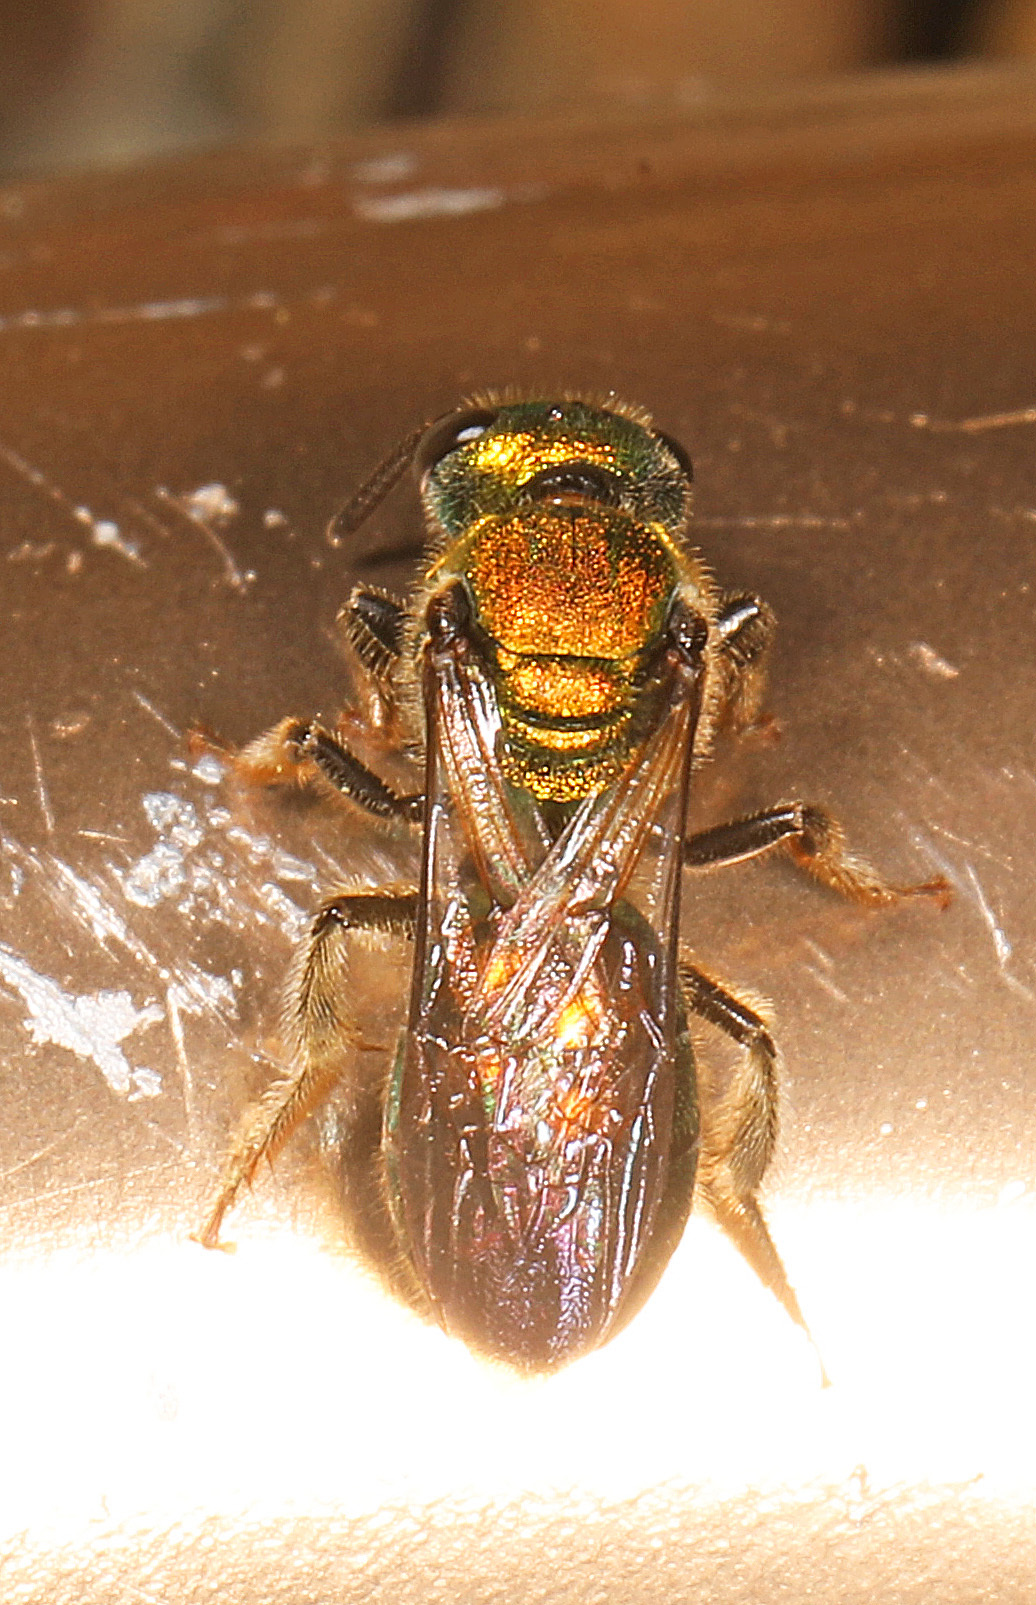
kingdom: Animalia
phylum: Arthropoda
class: Insecta
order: Hymenoptera
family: Halictidae
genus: Augochlora
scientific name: Augochlora pura
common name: Pure green sweat bee
